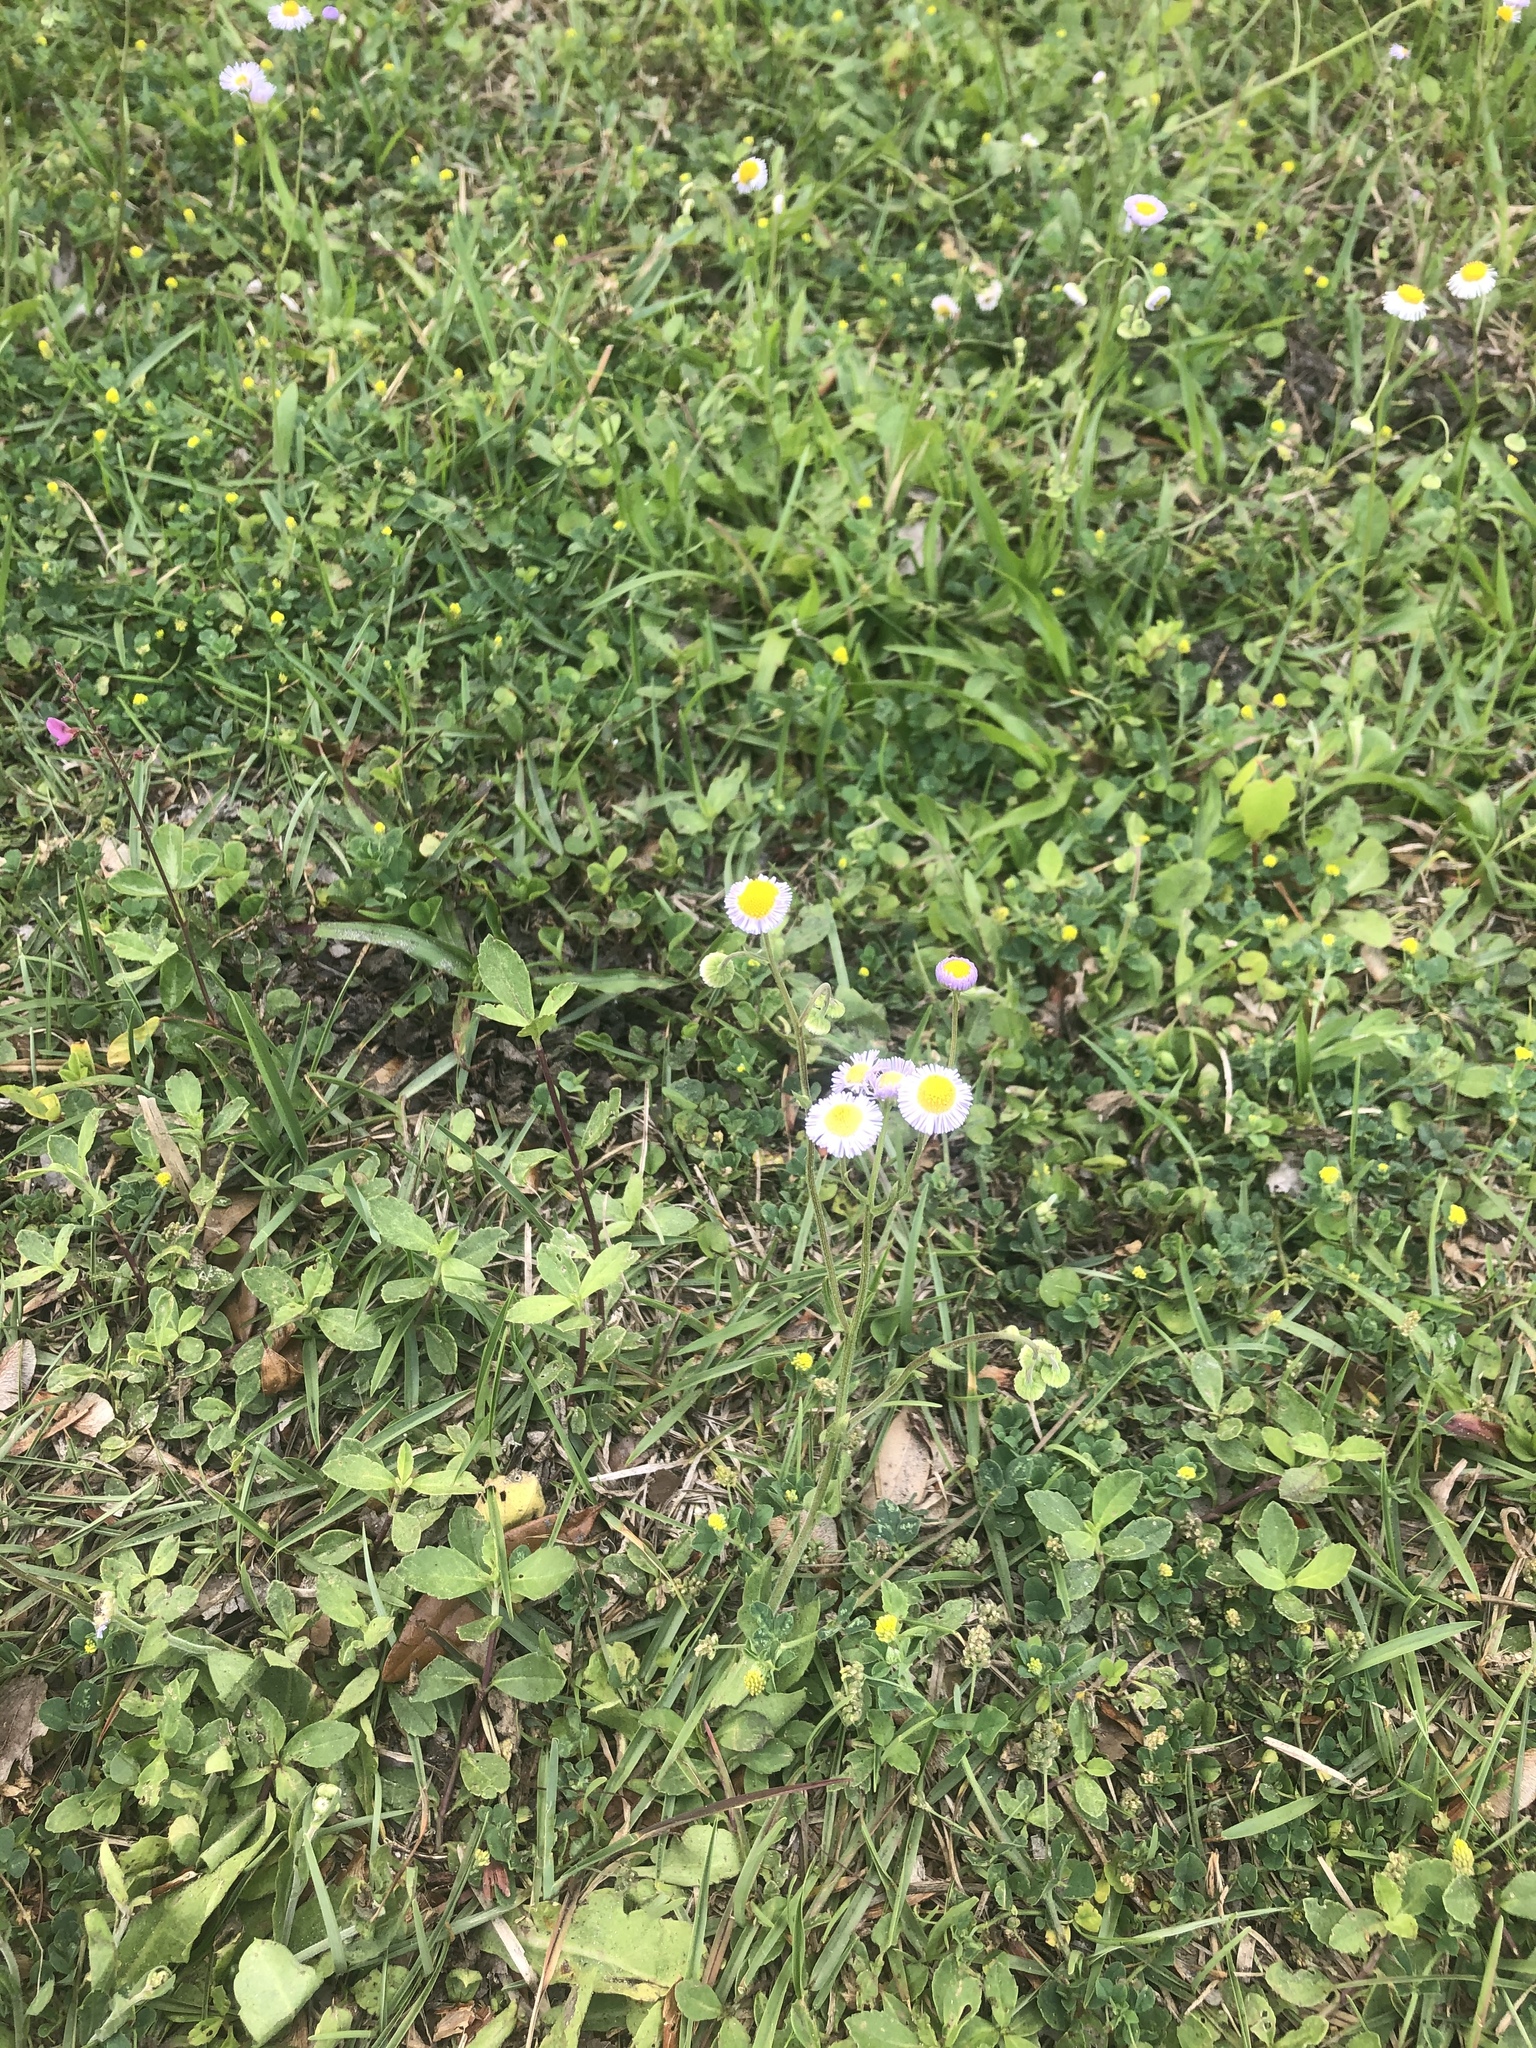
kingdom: Plantae
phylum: Tracheophyta
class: Magnoliopsida
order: Asterales
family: Asteraceae
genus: Erigeron
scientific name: Erigeron quercifolius
